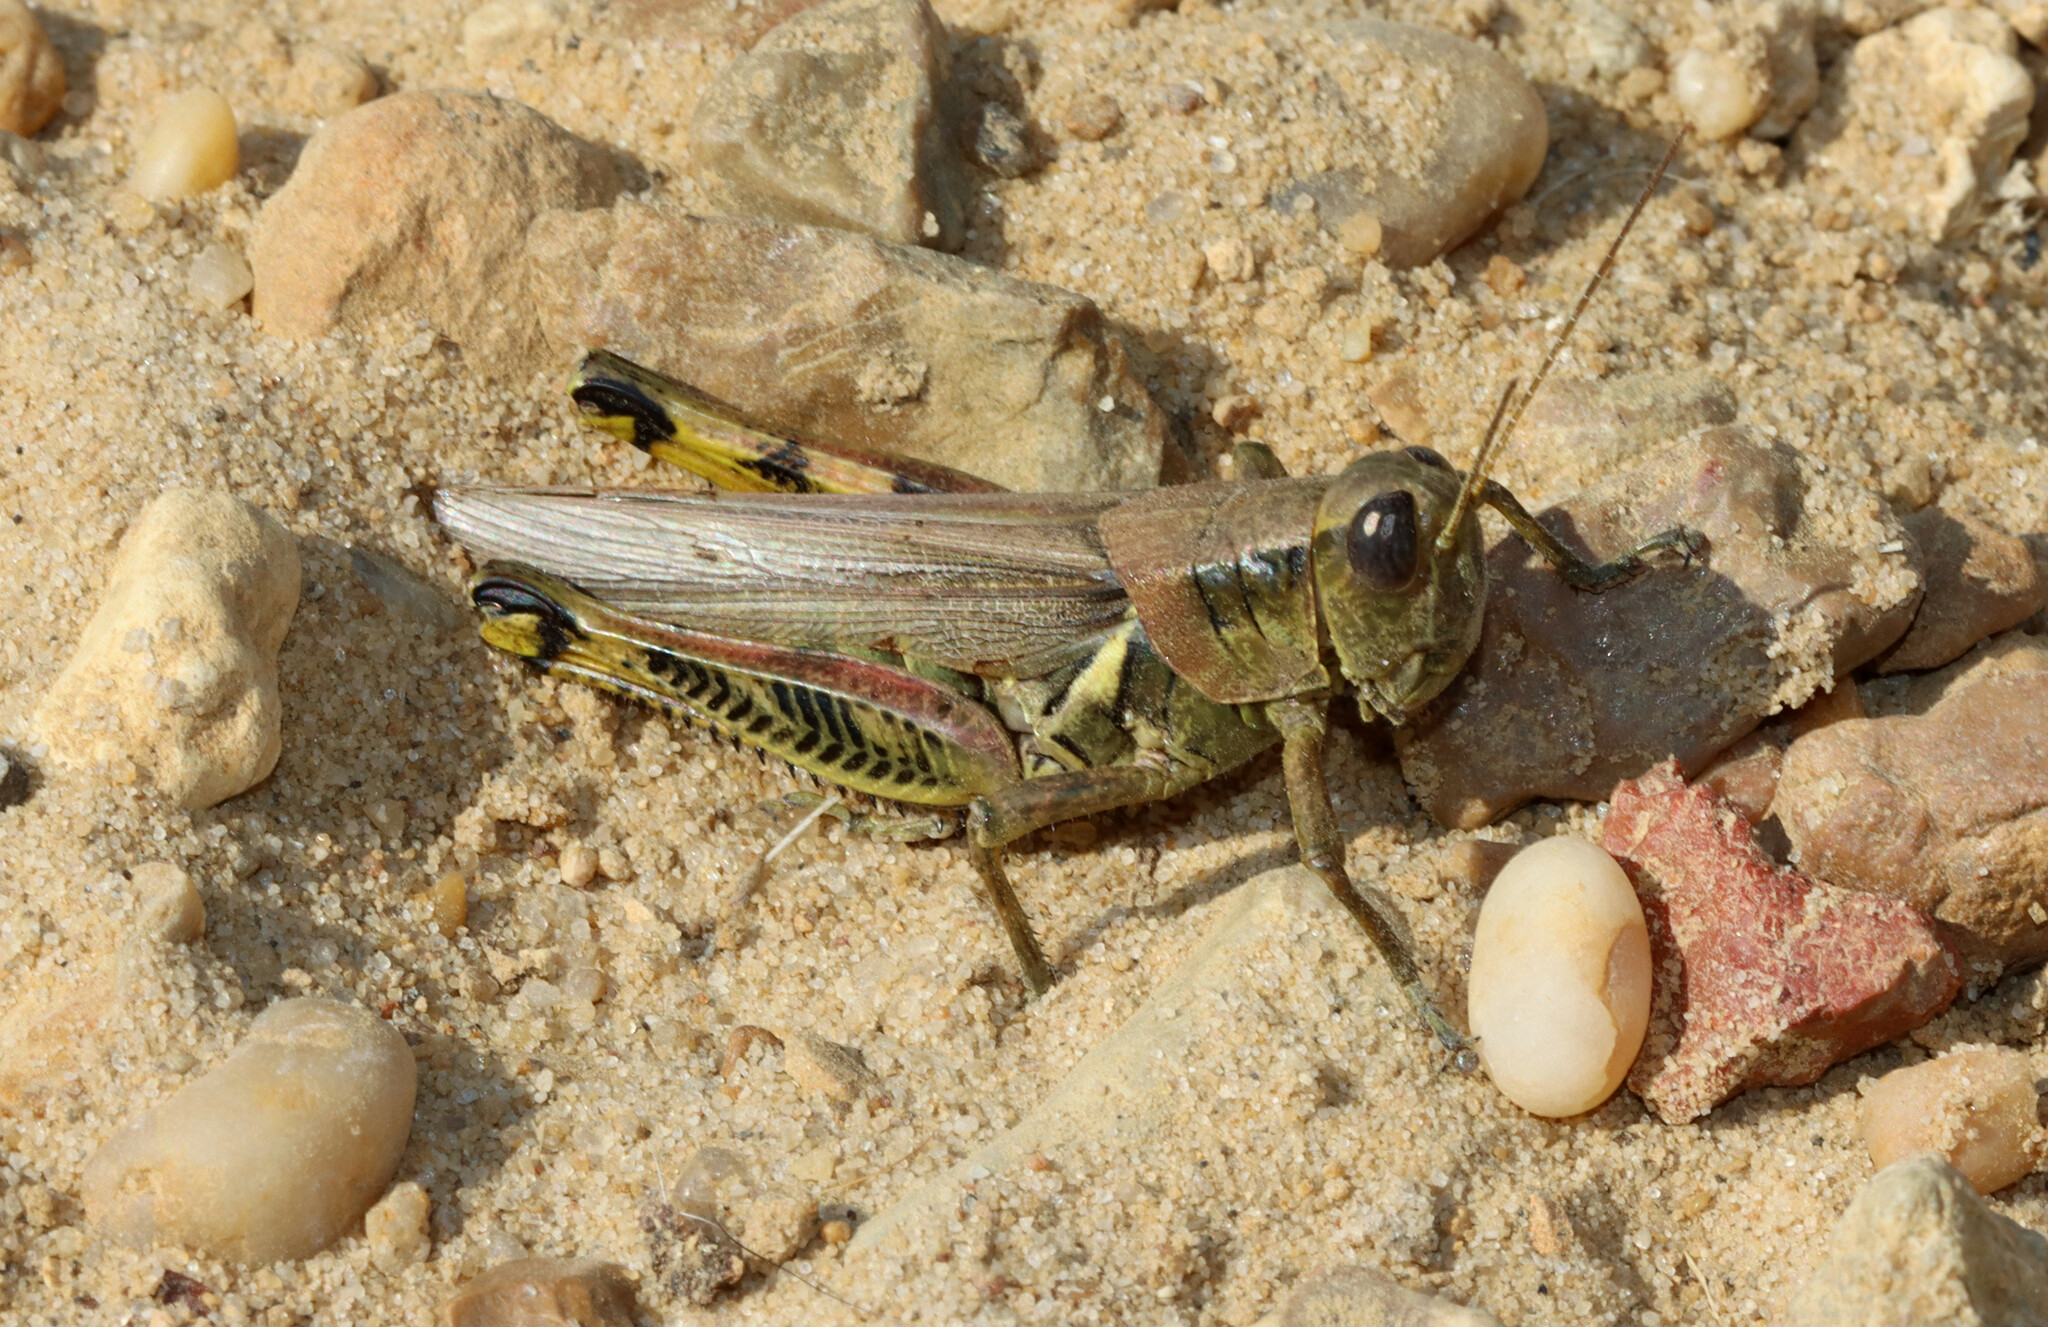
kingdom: Animalia
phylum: Arthropoda
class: Insecta
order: Orthoptera
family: Acrididae
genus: Melanoplus
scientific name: Melanoplus differentialis
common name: Differential grasshopper
